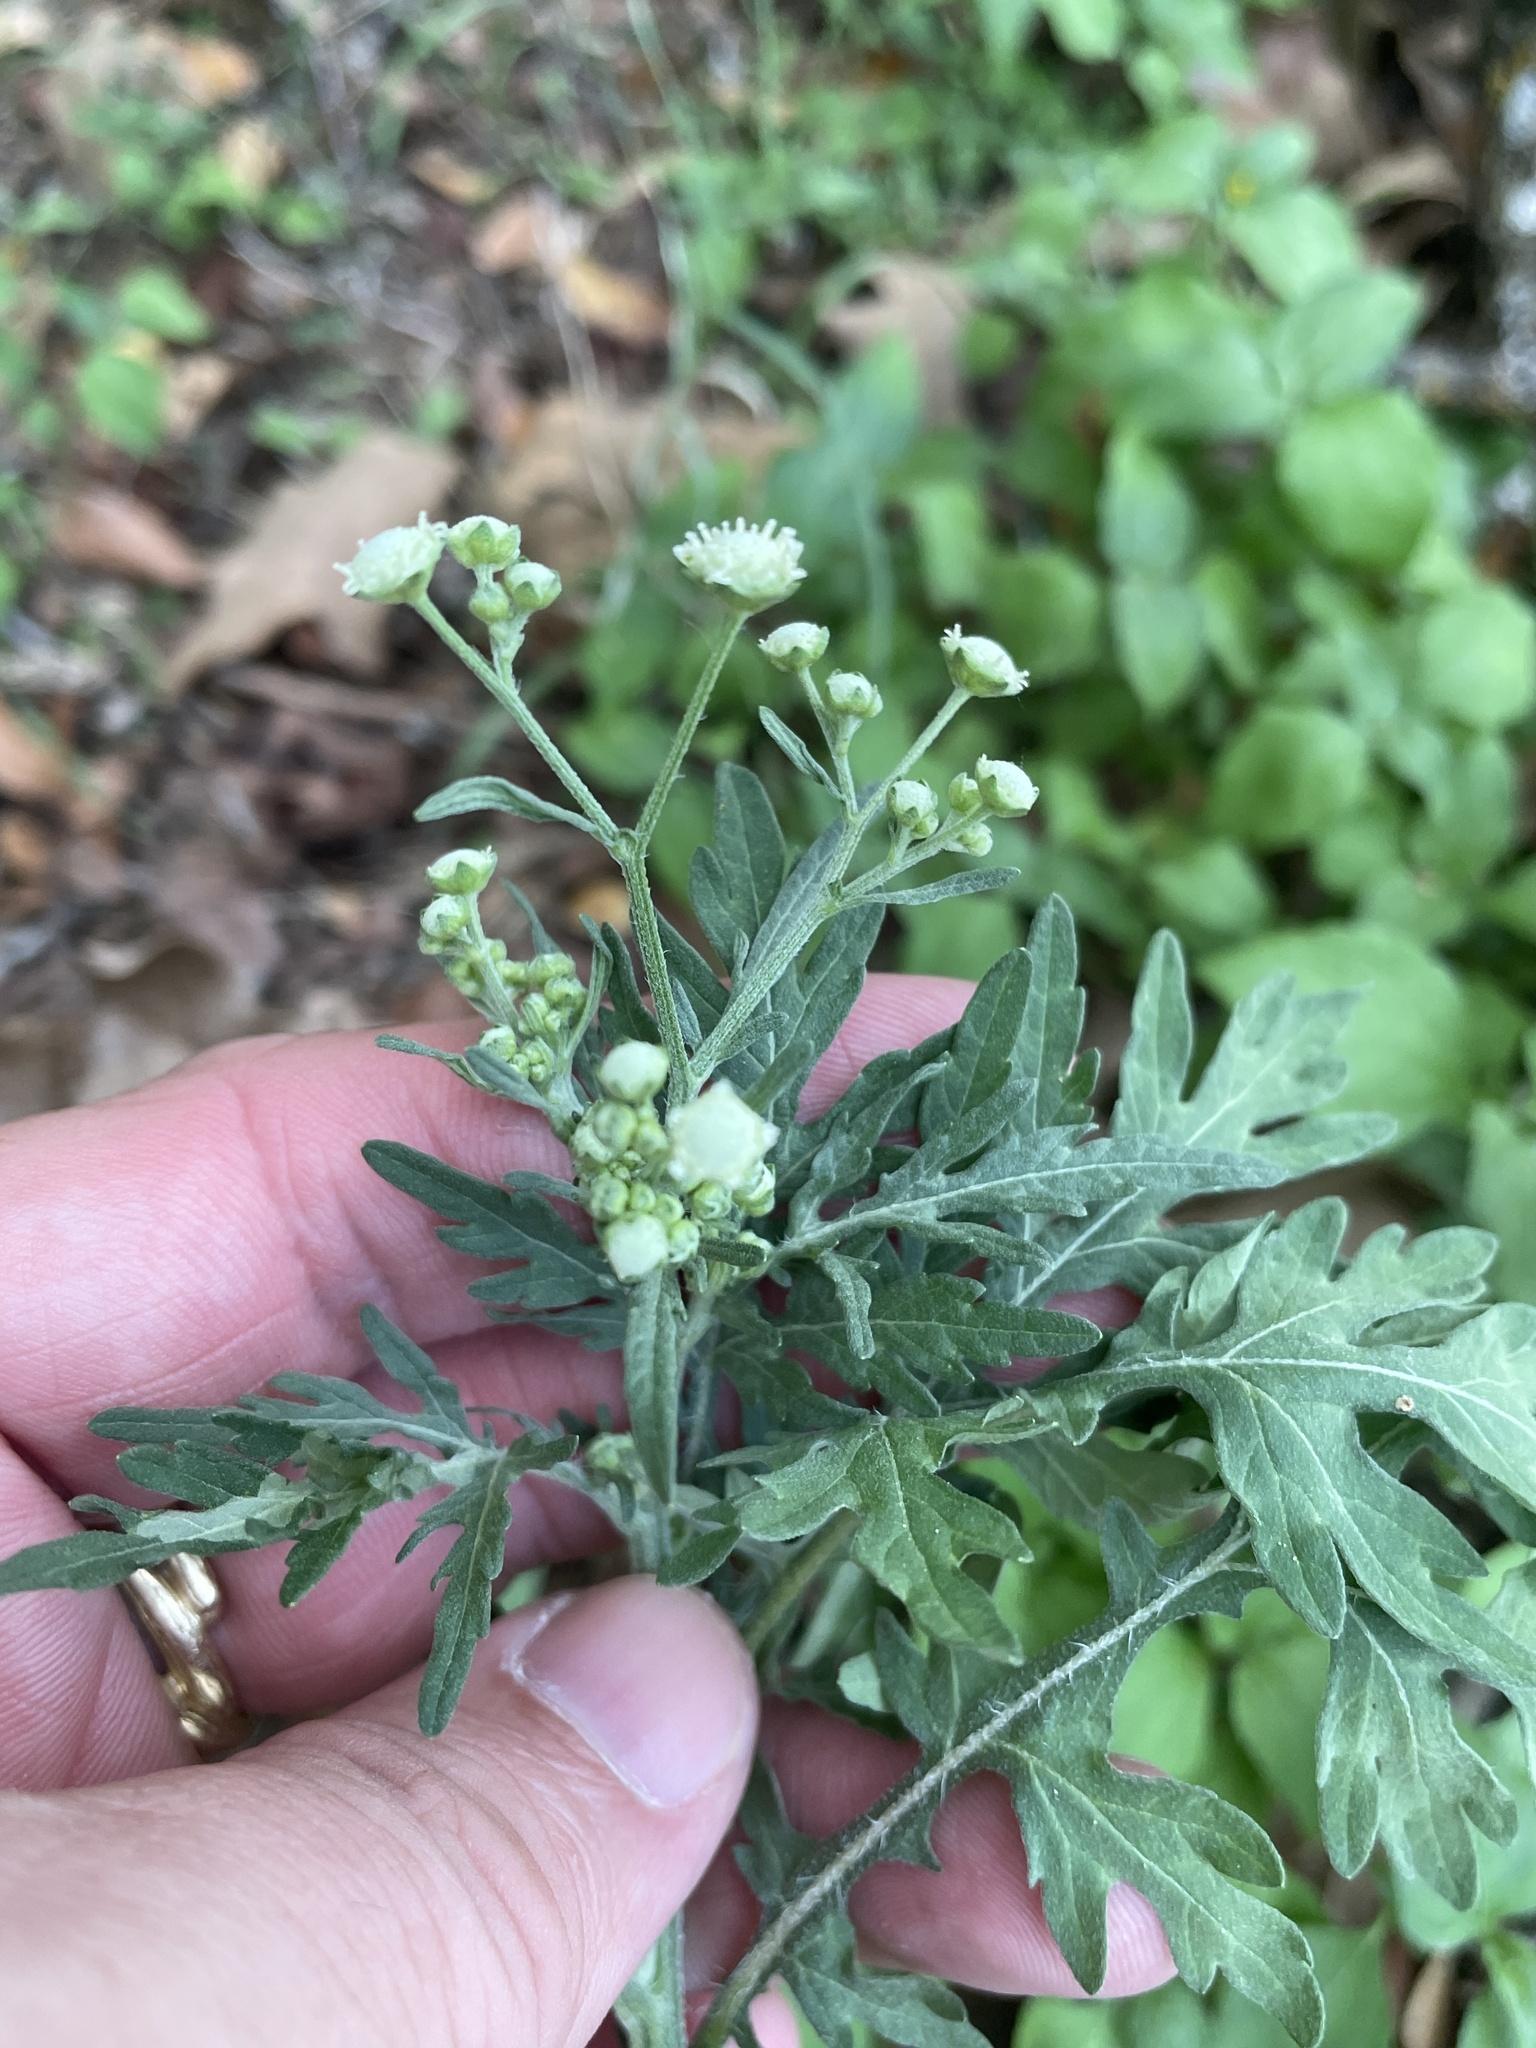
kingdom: Plantae
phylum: Tracheophyta
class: Magnoliopsida
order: Asterales
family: Asteraceae
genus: Parthenium
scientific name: Parthenium hysterophorus
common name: Santa maria feverfew
